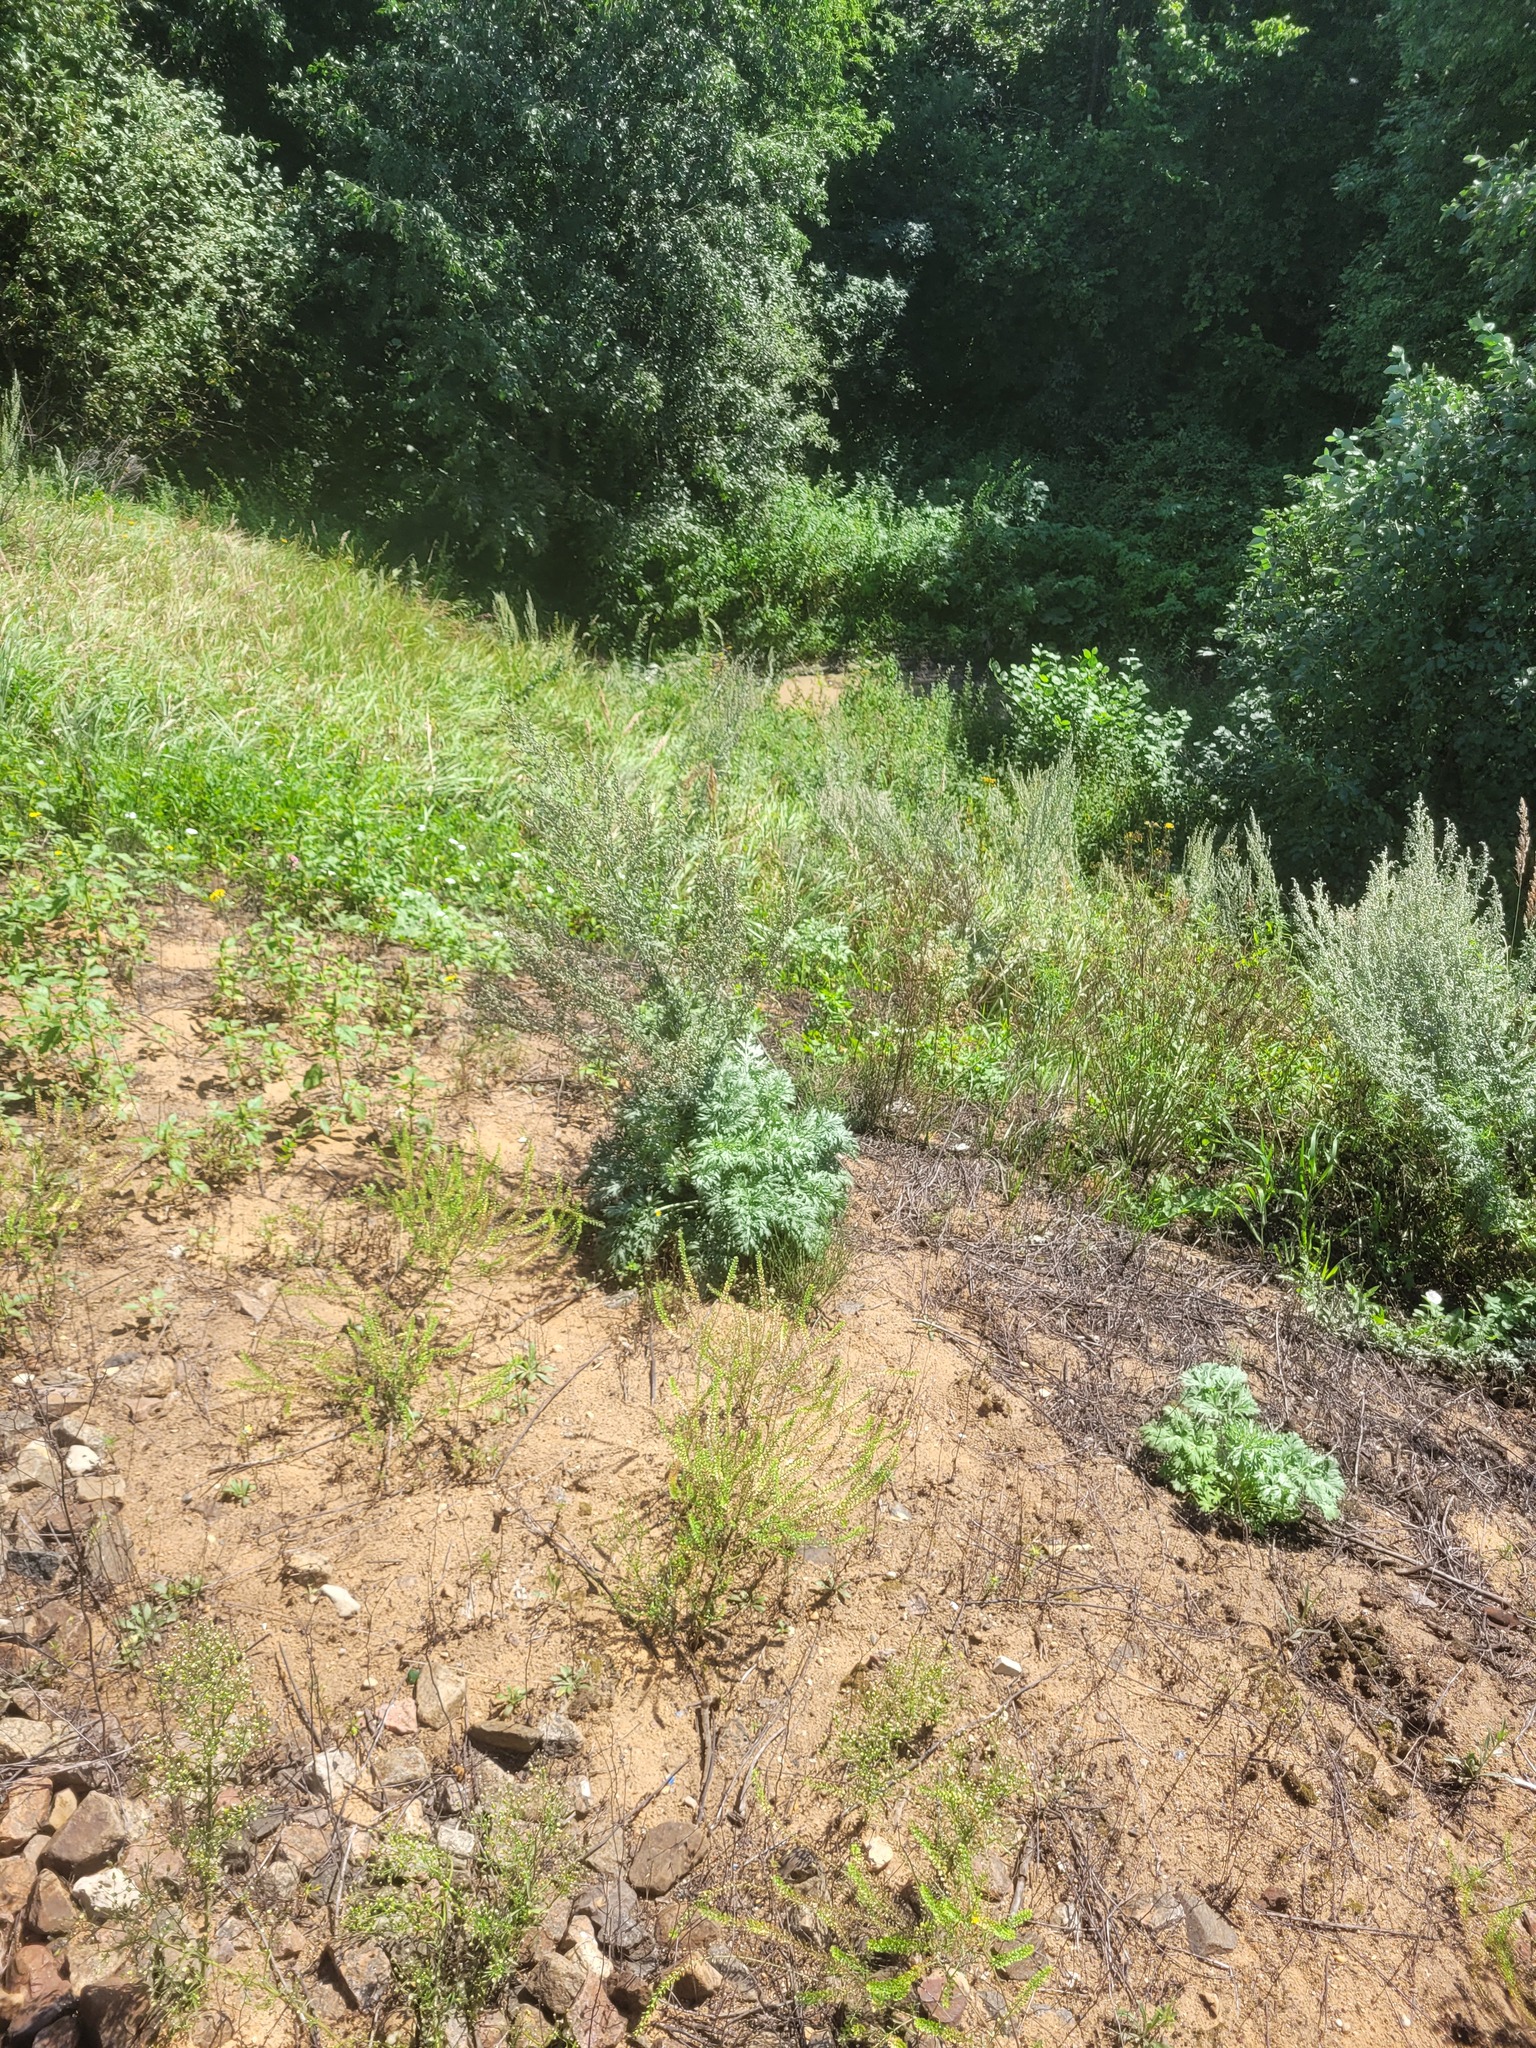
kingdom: Plantae
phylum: Tracheophyta
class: Magnoliopsida
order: Asterales
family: Asteraceae
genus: Artemisia
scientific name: Artemisia absinthium
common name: Wormwood
